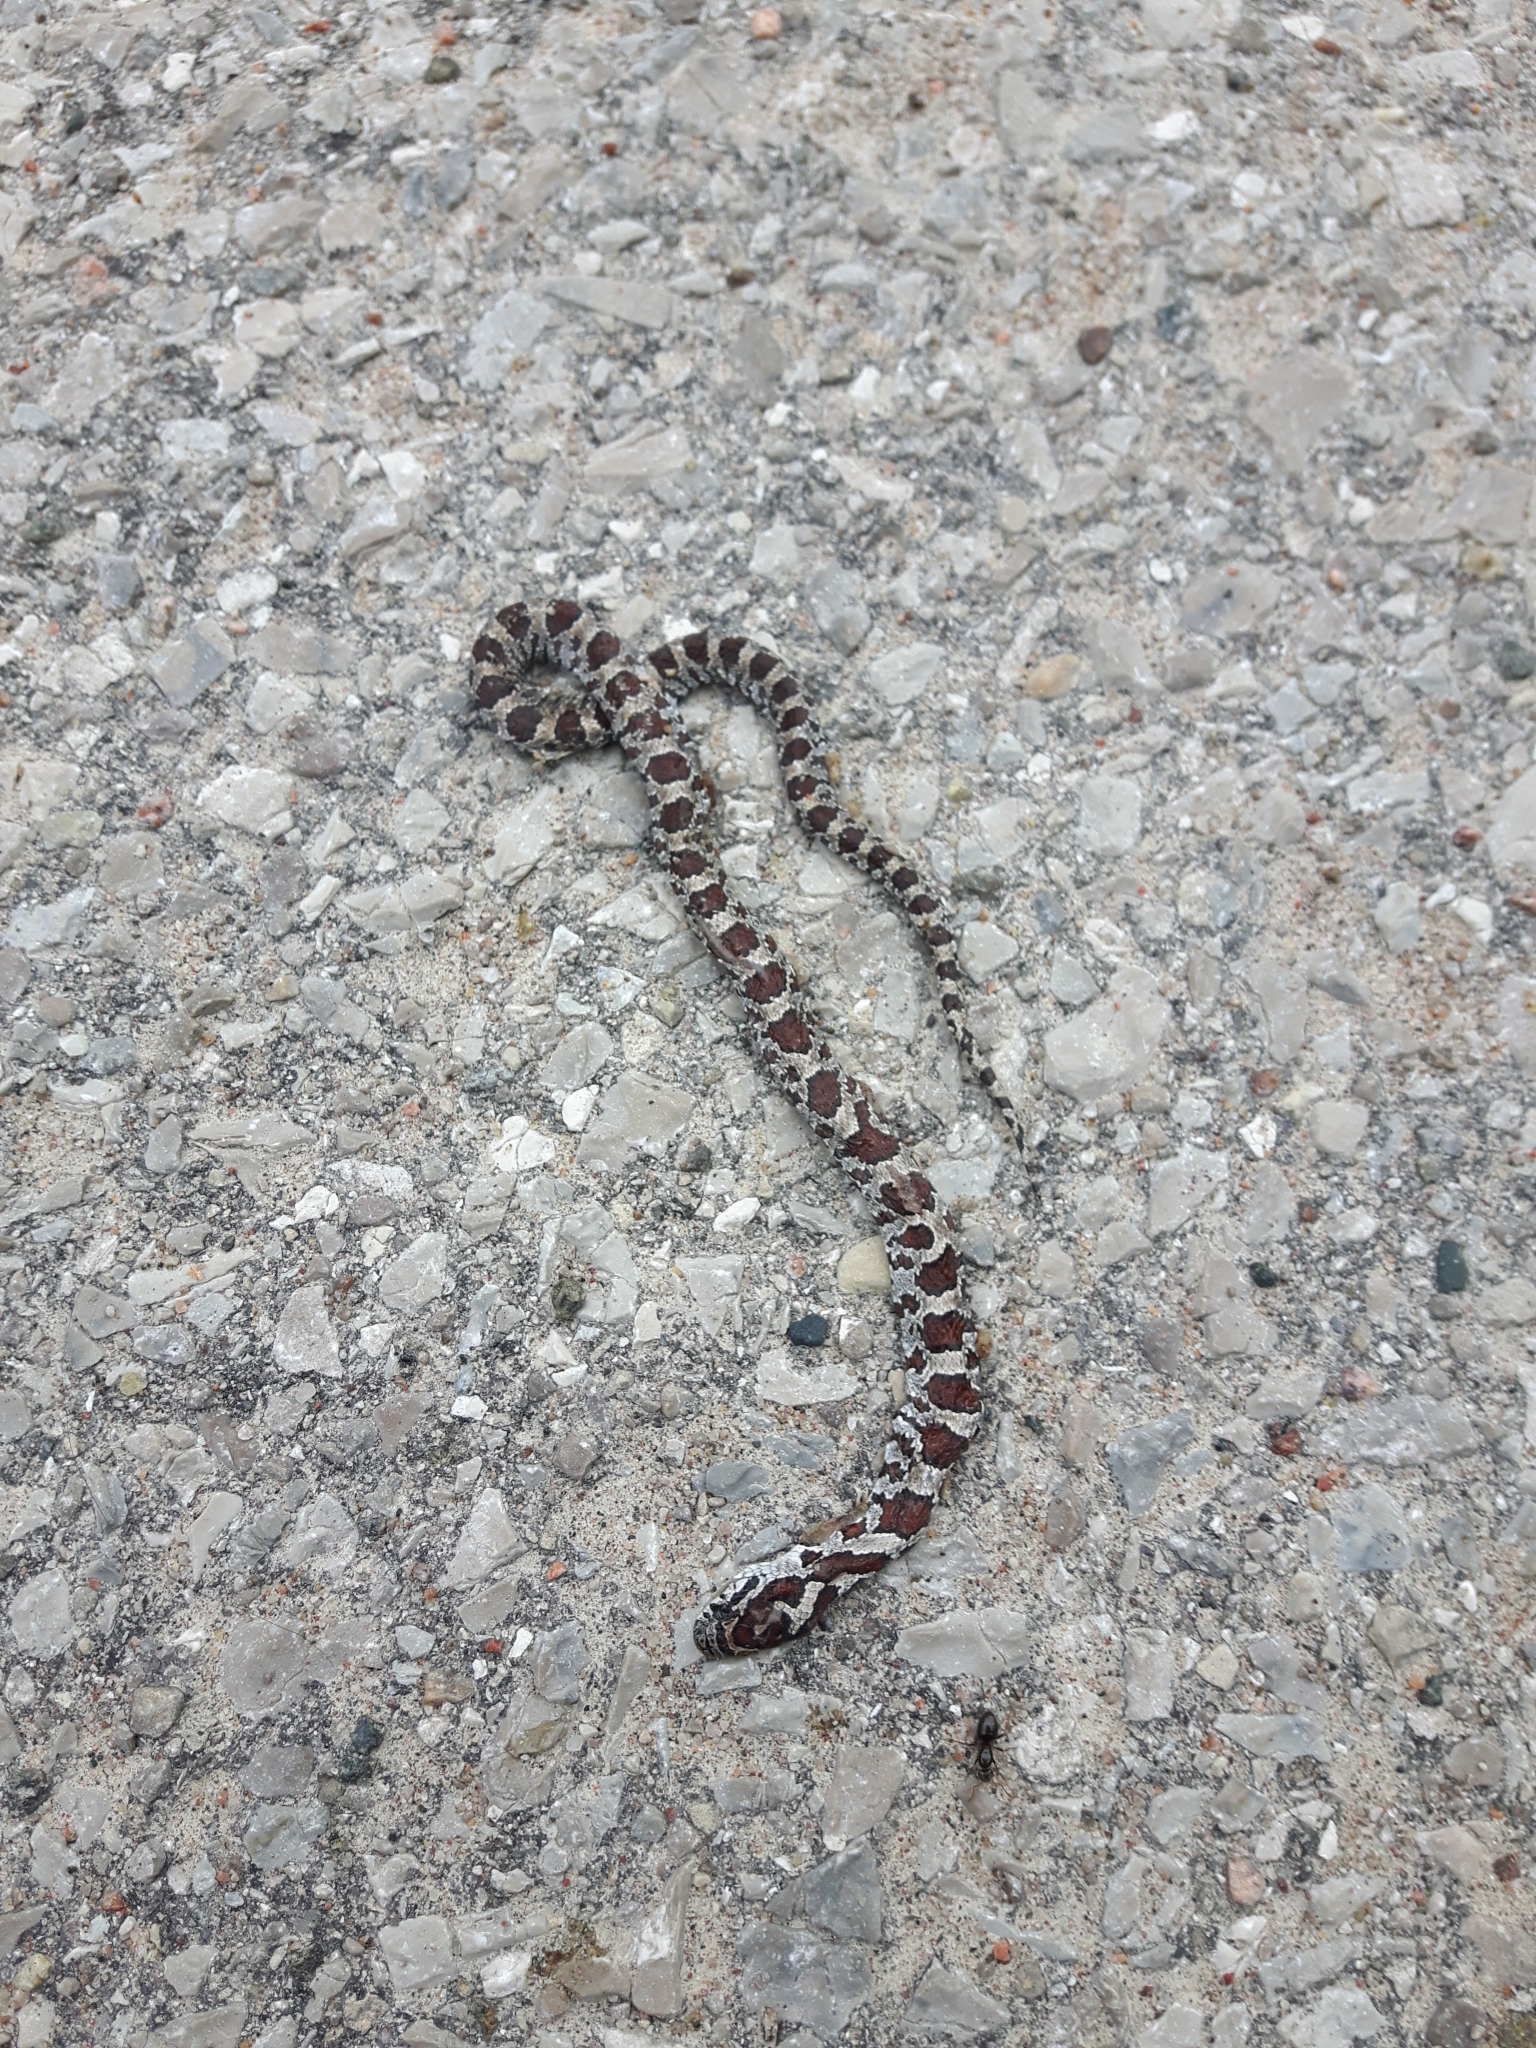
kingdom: Animalia
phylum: Chordata
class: Squamata
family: Colubridae
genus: Lampropeltis
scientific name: Lampropeltis triangulum
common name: Eastern milksnake
